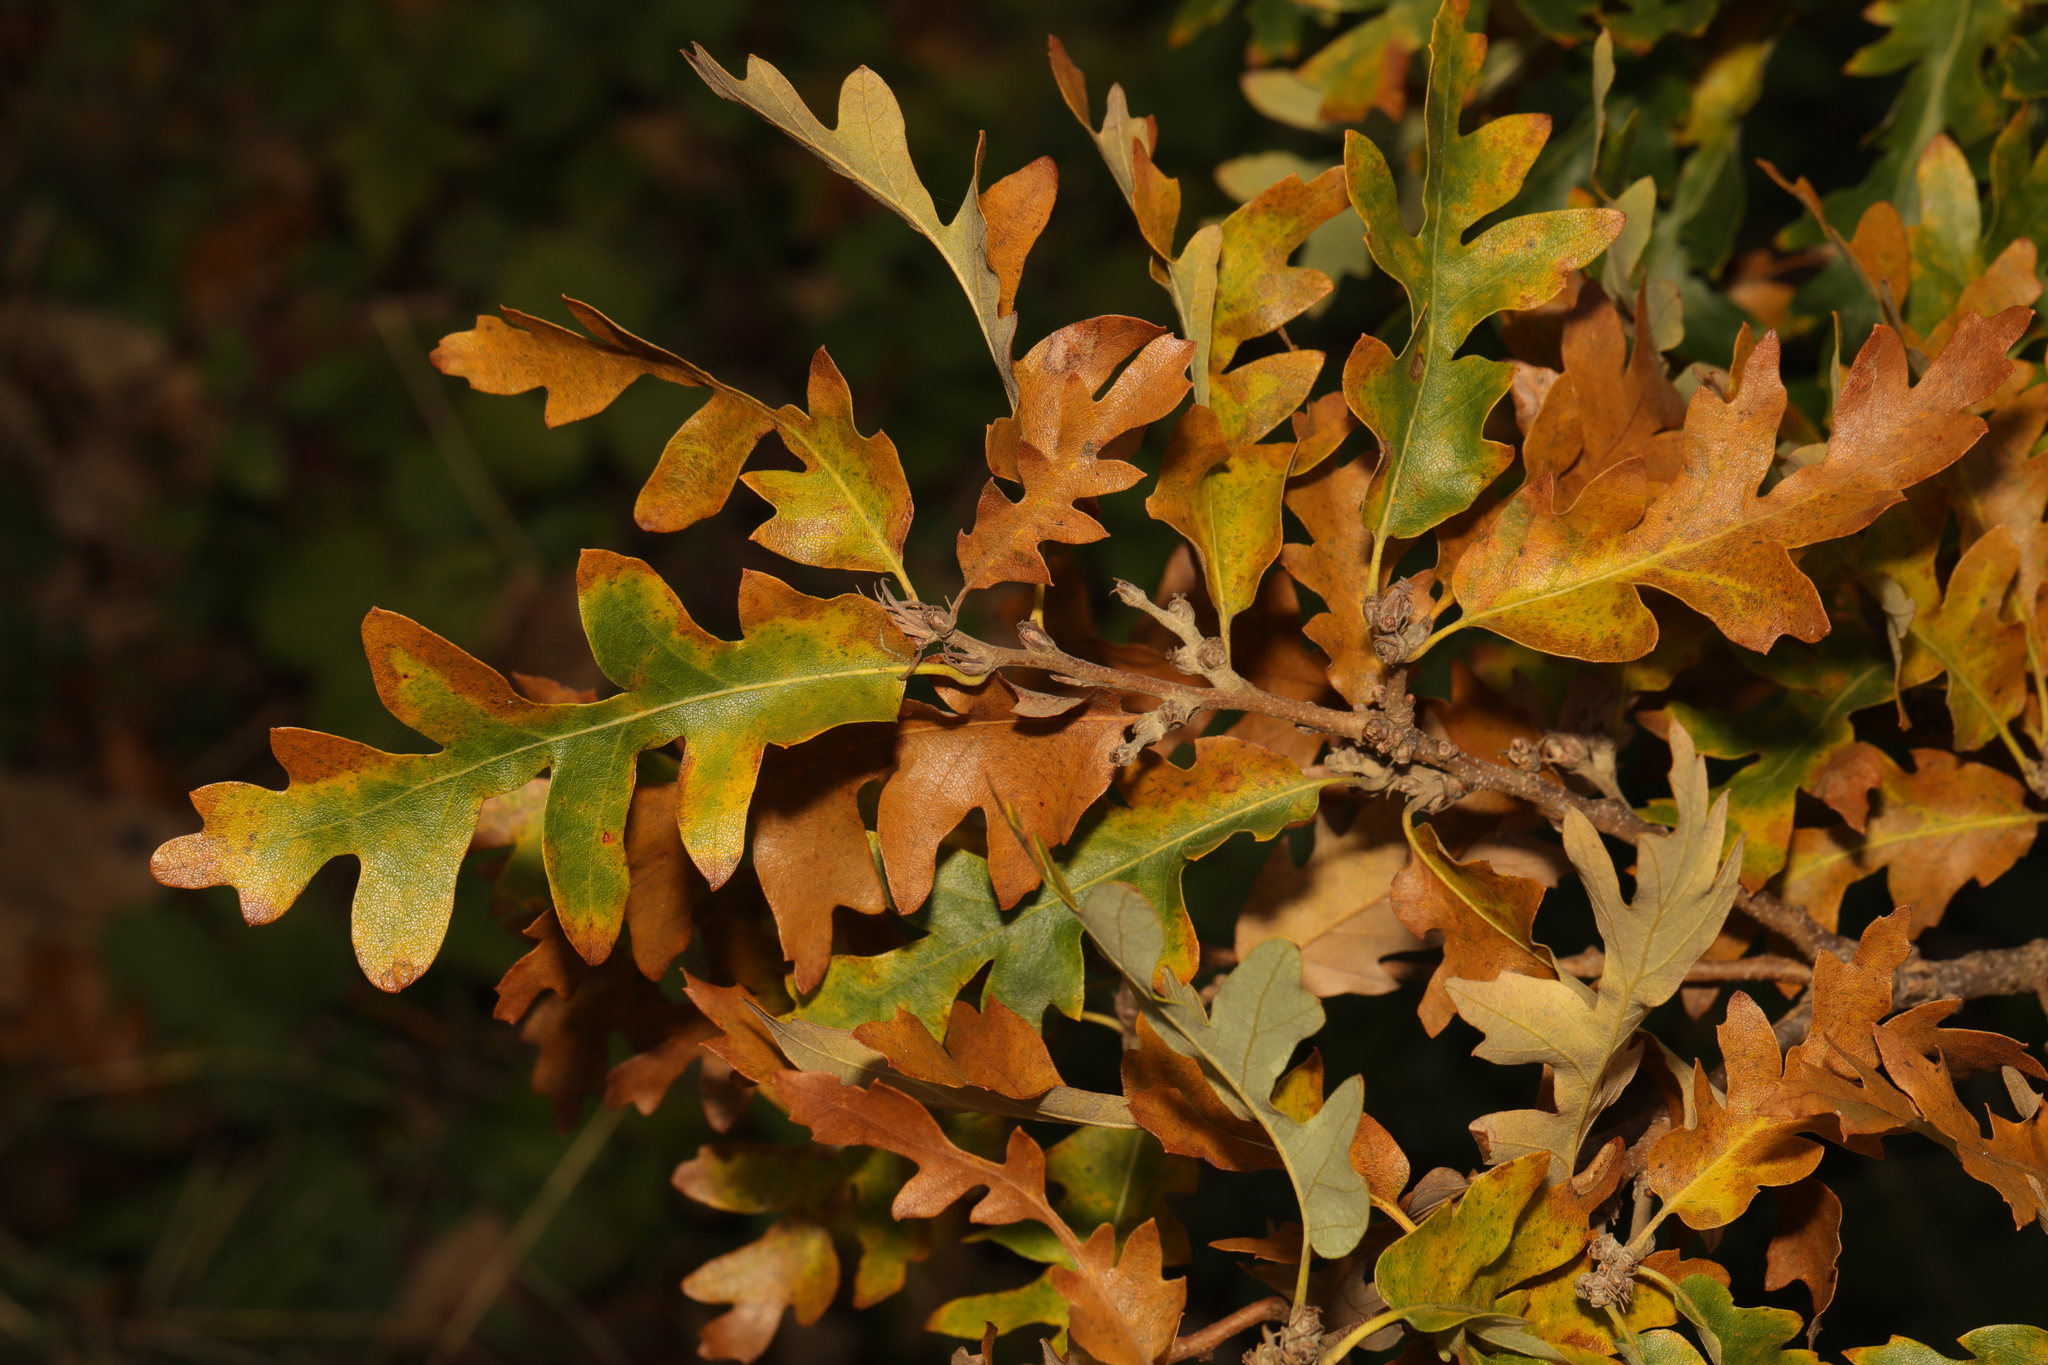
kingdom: Plantae
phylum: Tracheophyta
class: Magnoliopsida
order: Fagales
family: Fagaceae
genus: Quercus
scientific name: Quercus cerris
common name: Turkey oak
